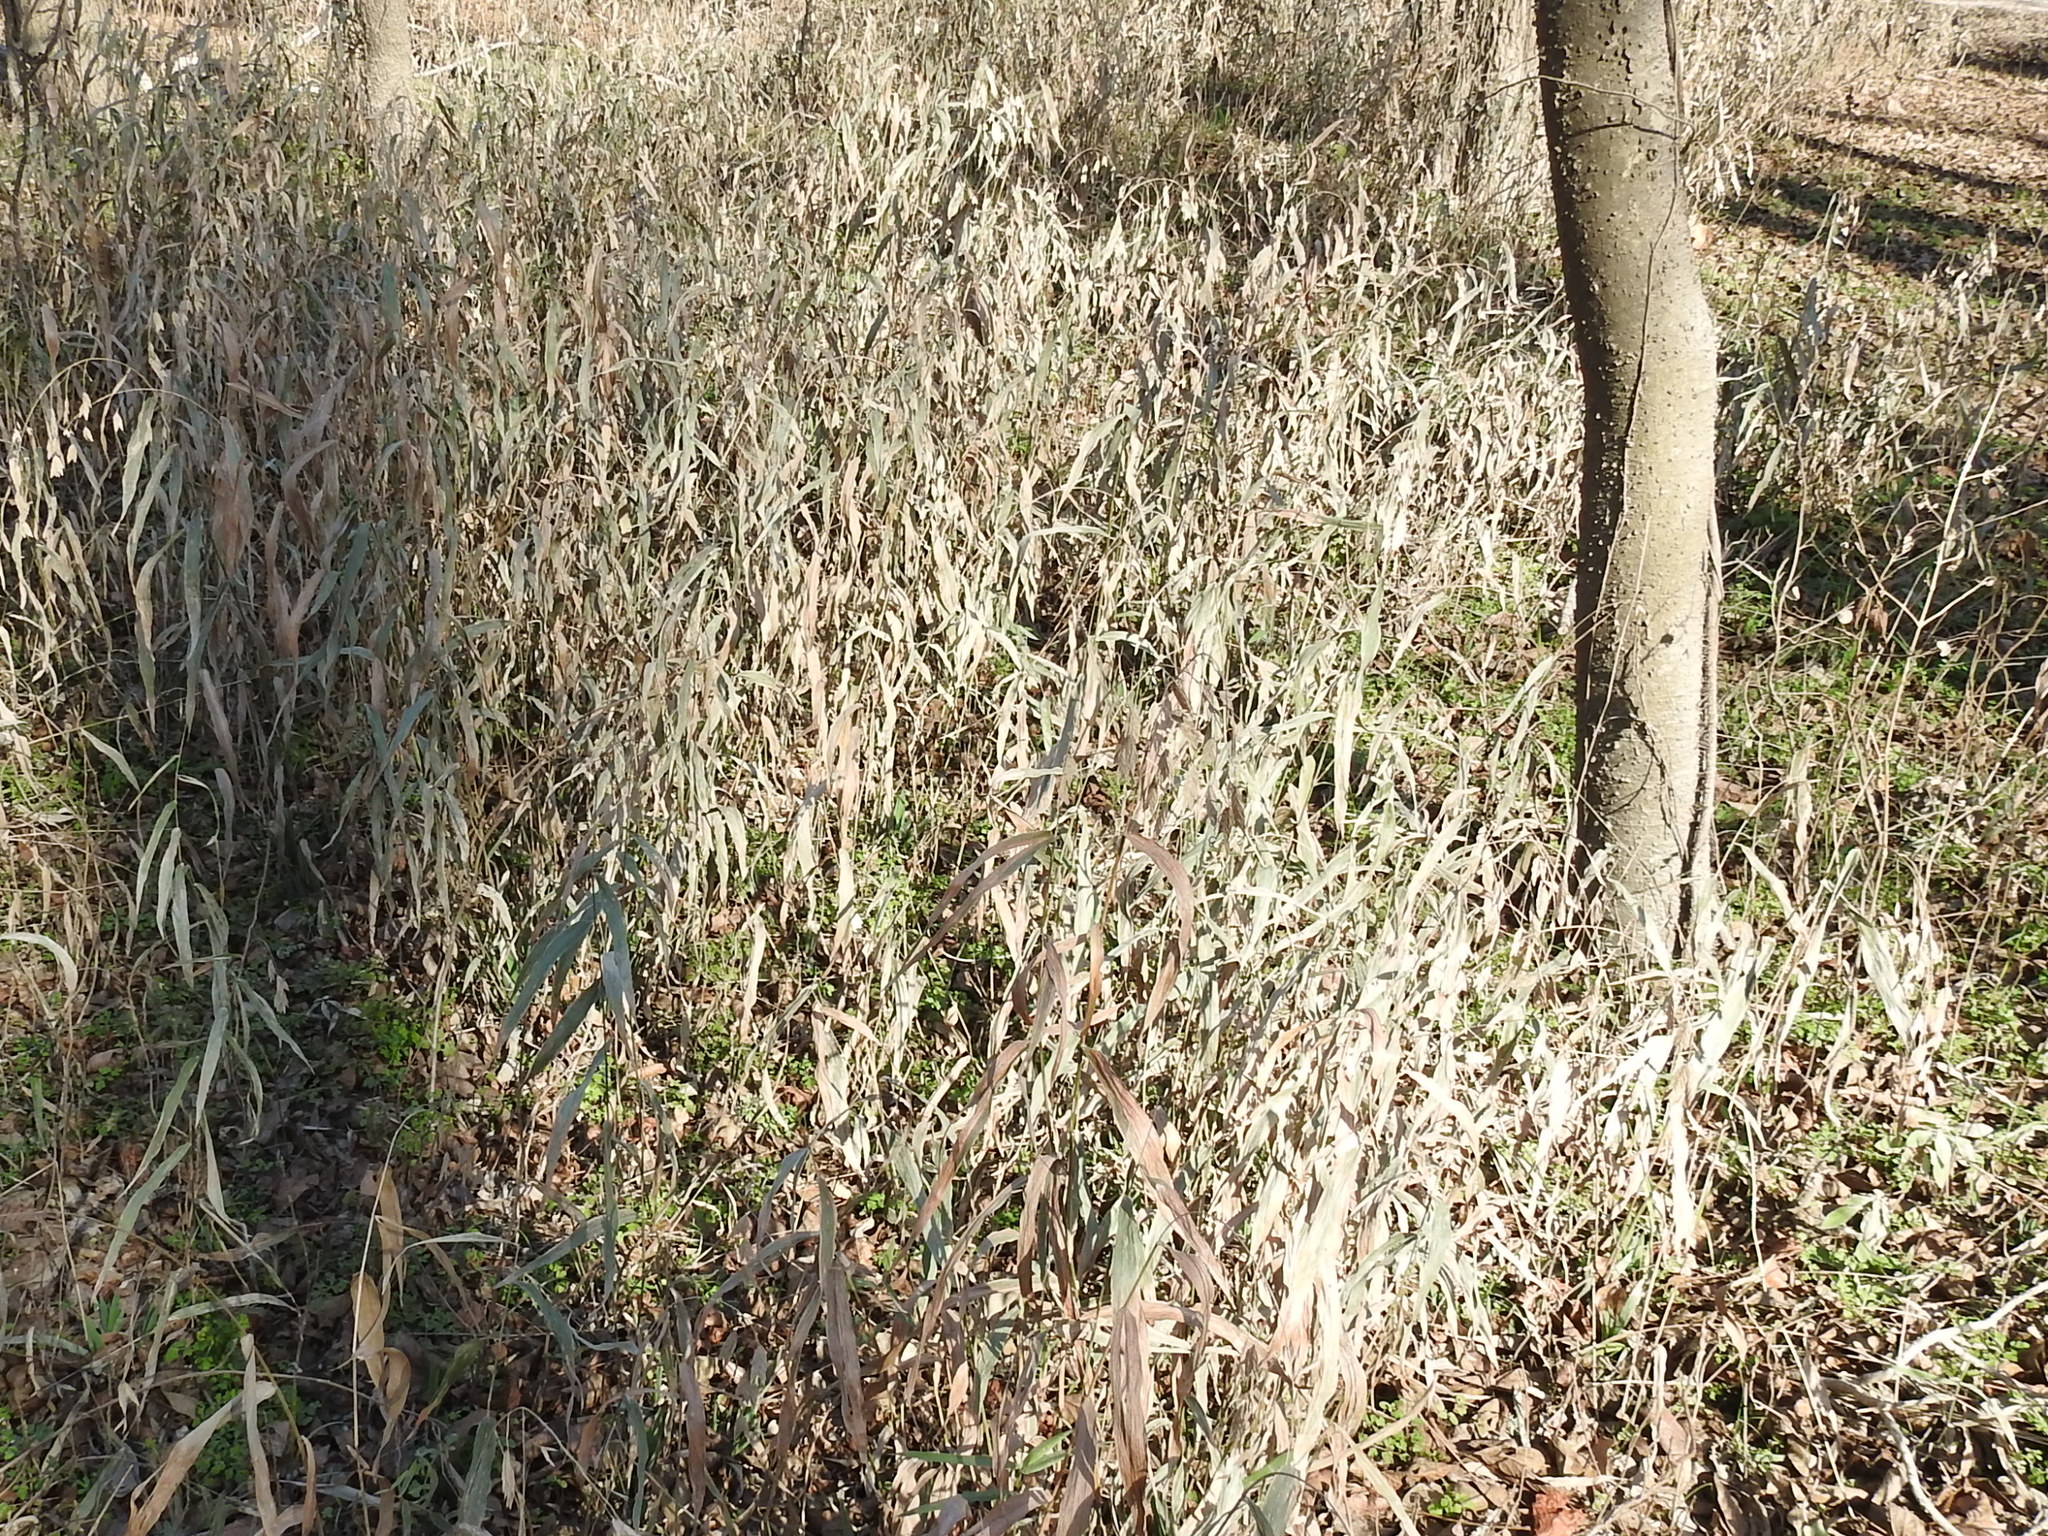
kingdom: Plantae
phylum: Tracheophyta
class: Liliopsida
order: Poales
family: Poaceae
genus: Chasmanthium
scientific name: Chasmanthium latifolium
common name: Broad-leaved chasmanthium
